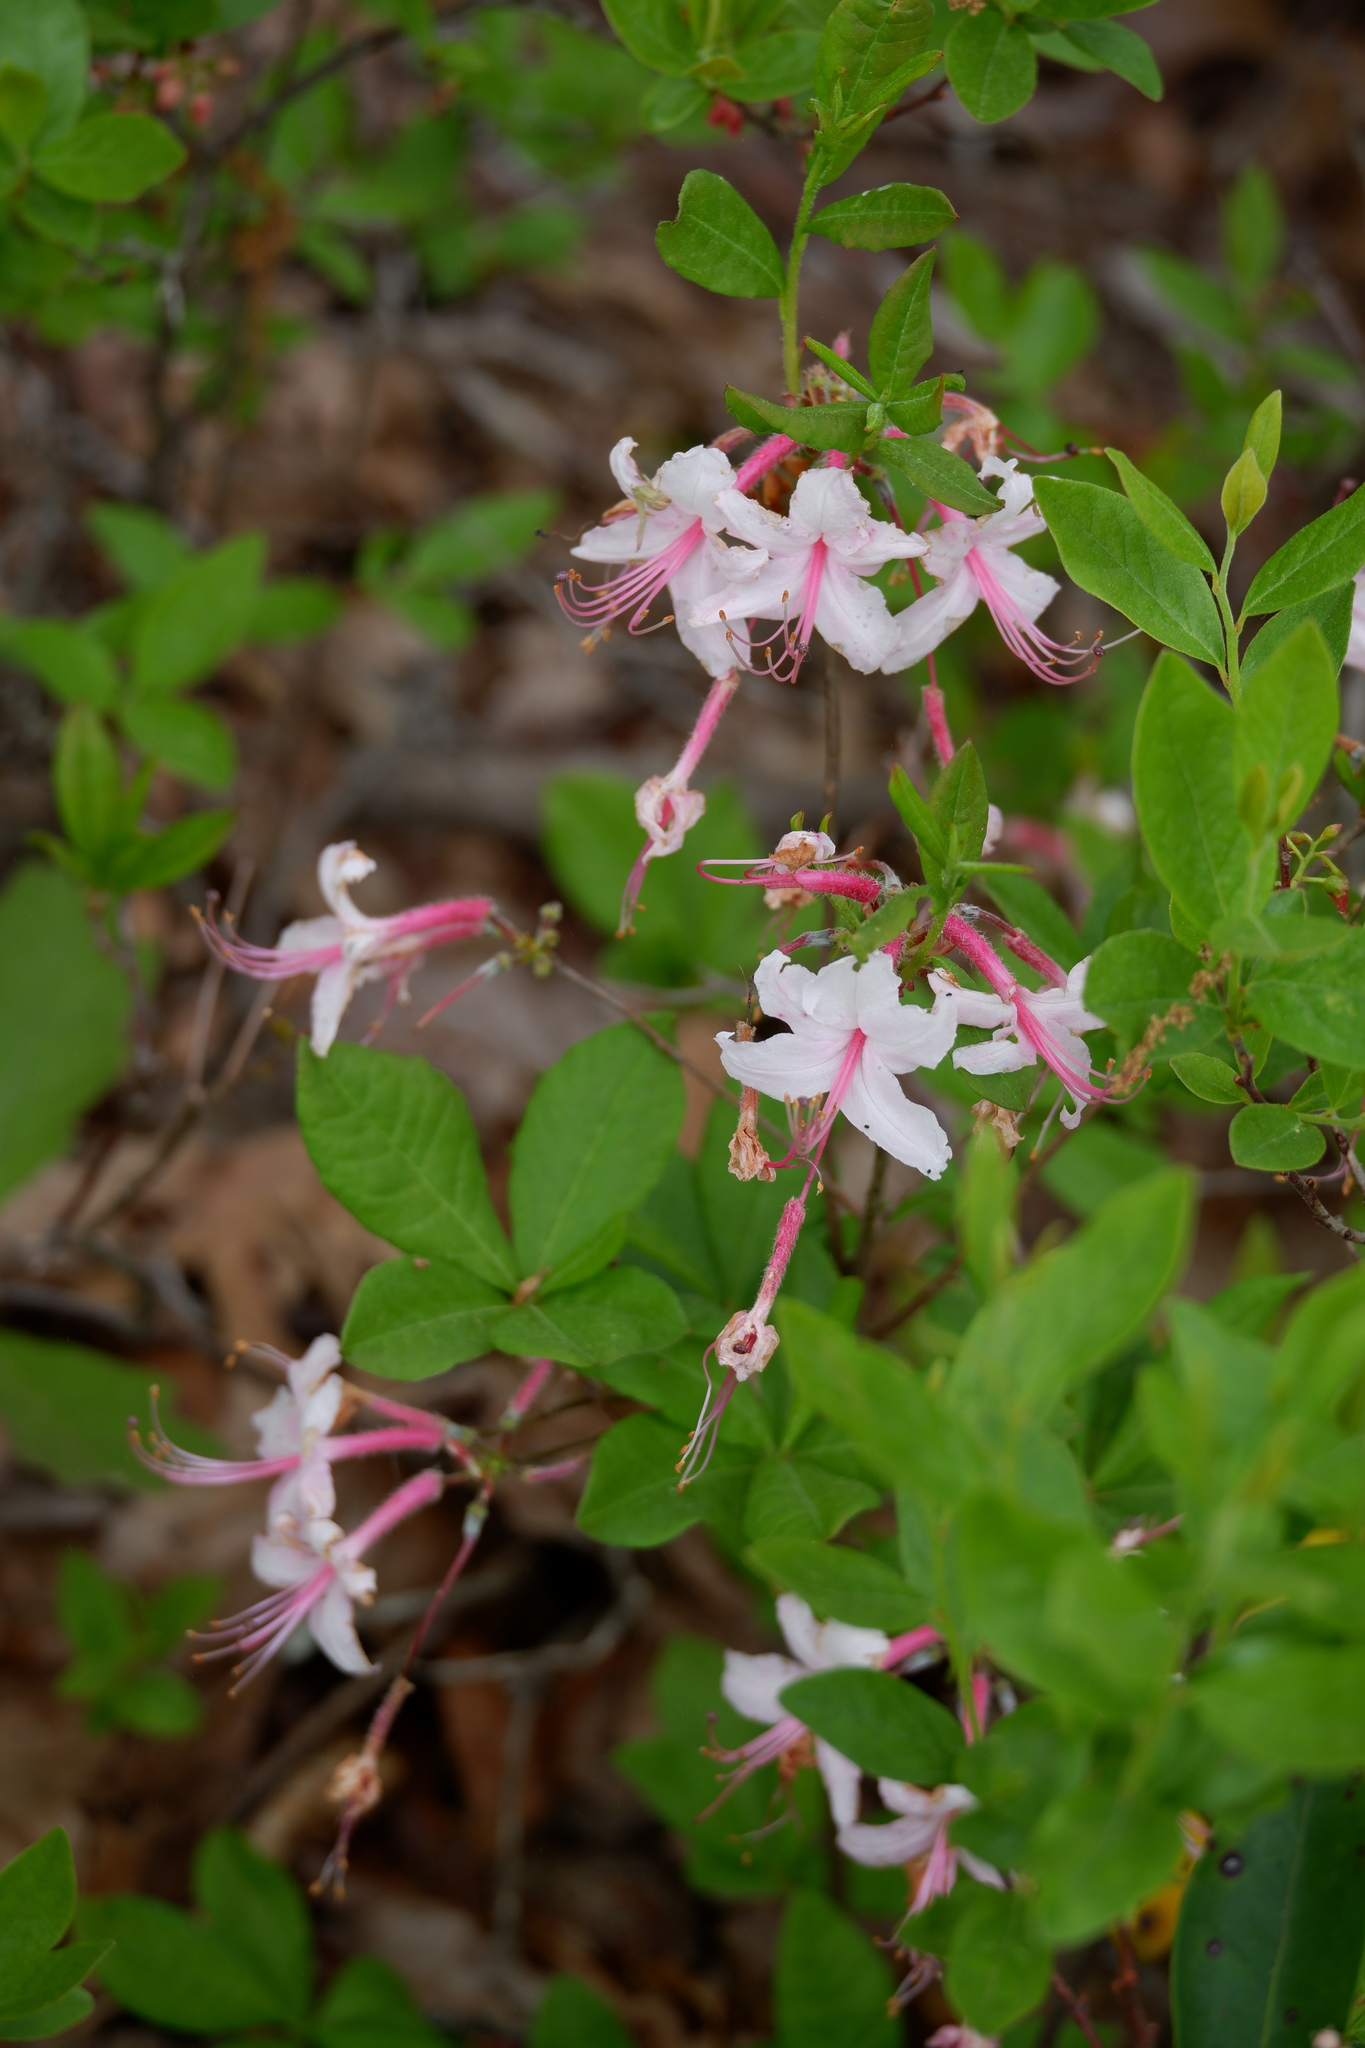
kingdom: Plantae
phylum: Tracheophyta
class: Magnoliopsida
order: Ericales
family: Ericaceae
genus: Rhododendron
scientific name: Rhododendron periclymenoides
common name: Election-pink
